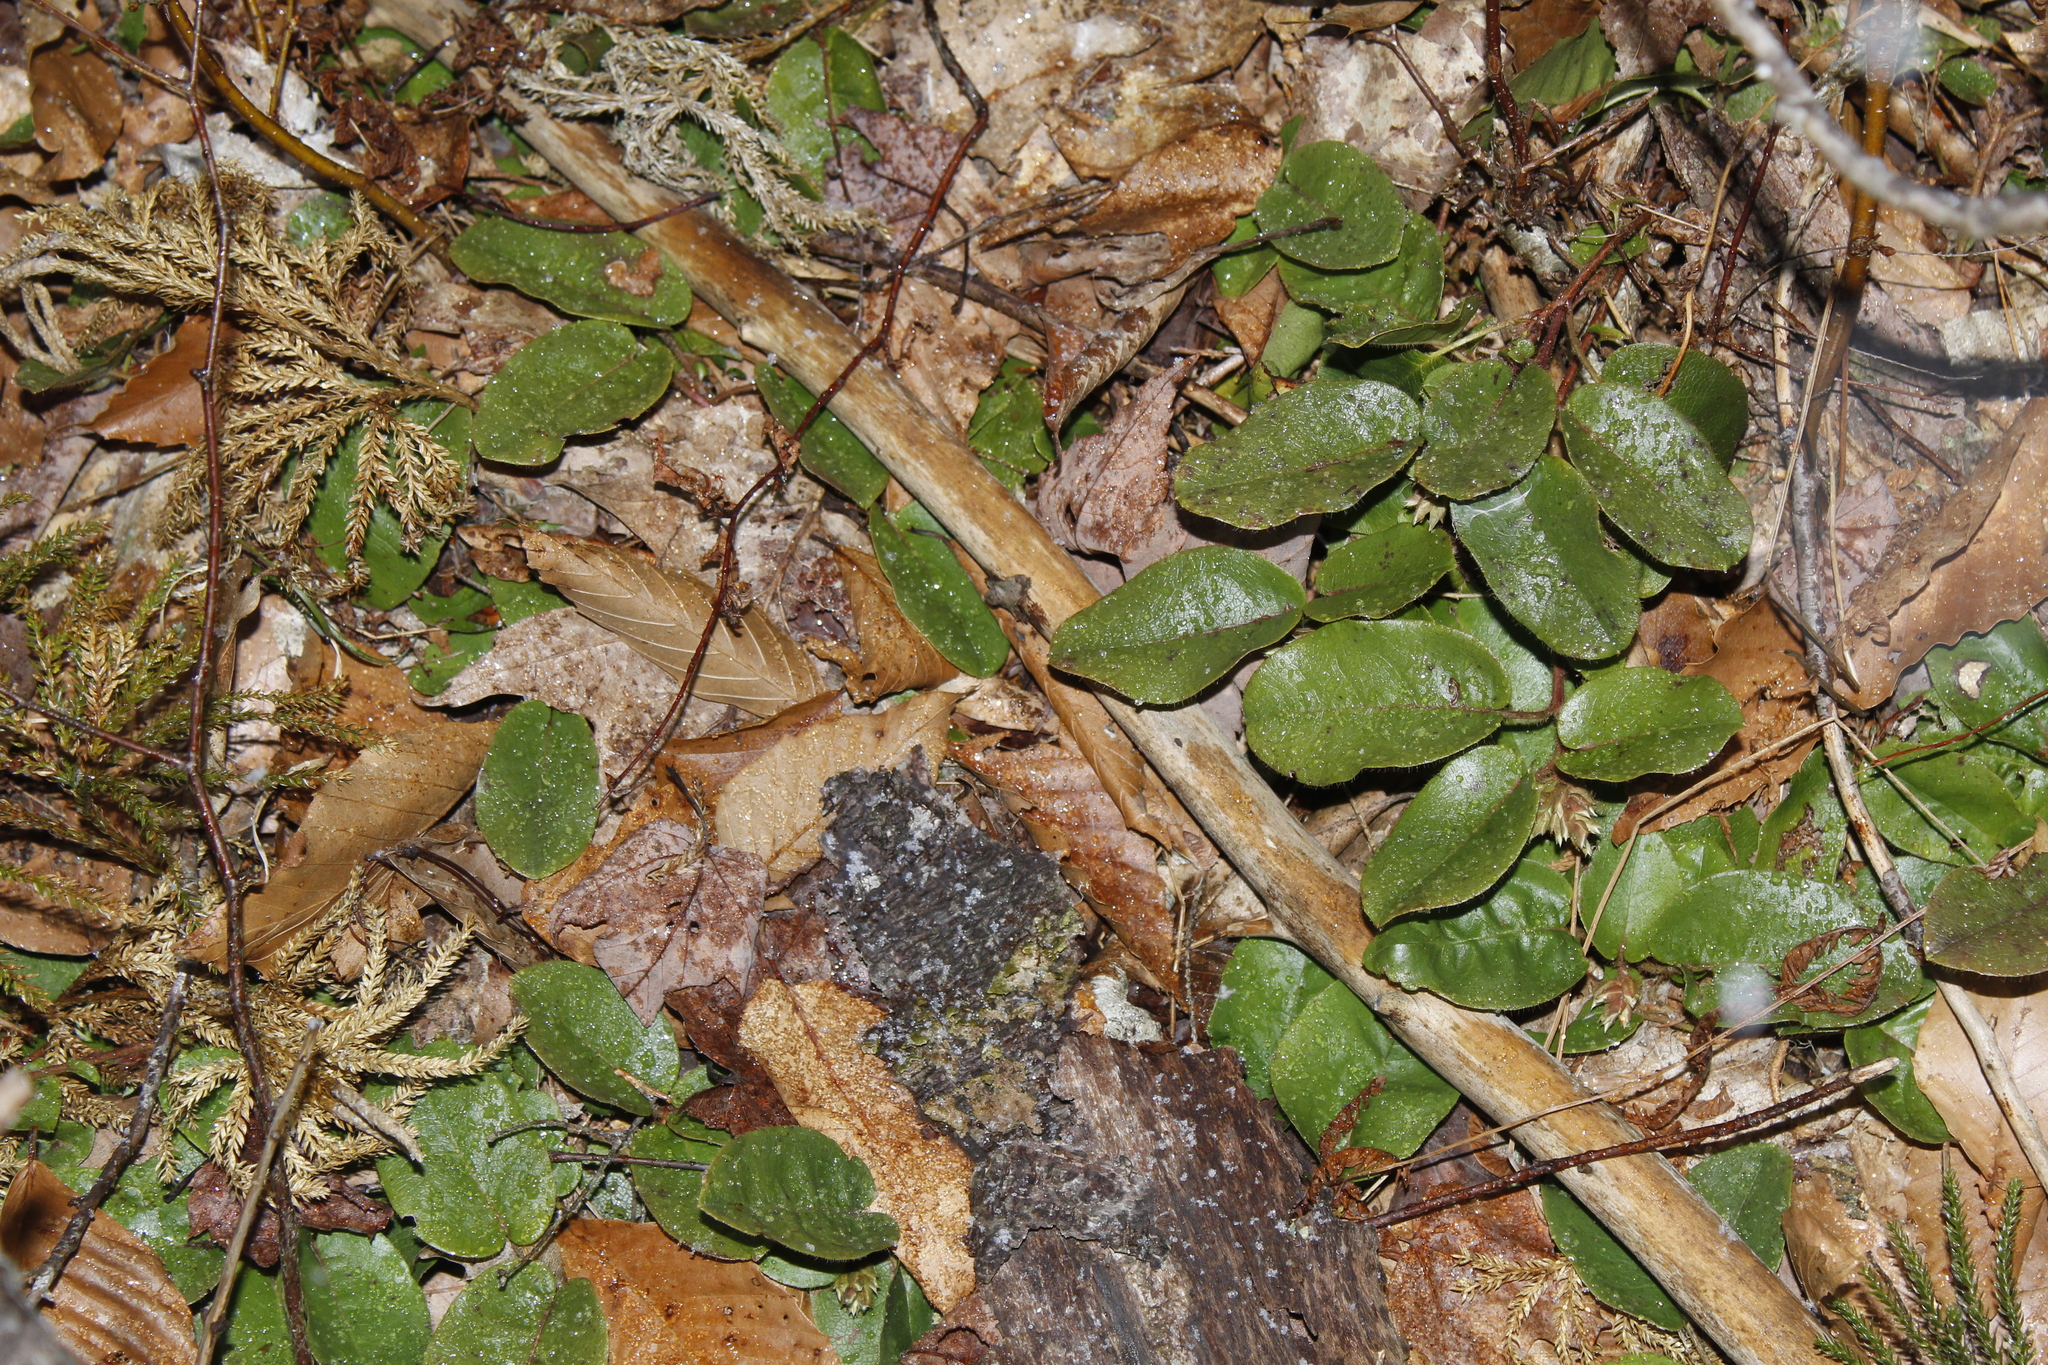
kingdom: Plantae
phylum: Tracheophyta
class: Magnoliopsida
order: Ericales
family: Ericaceae
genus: Epigaea
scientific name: Epigaea repens
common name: Gravelroot
